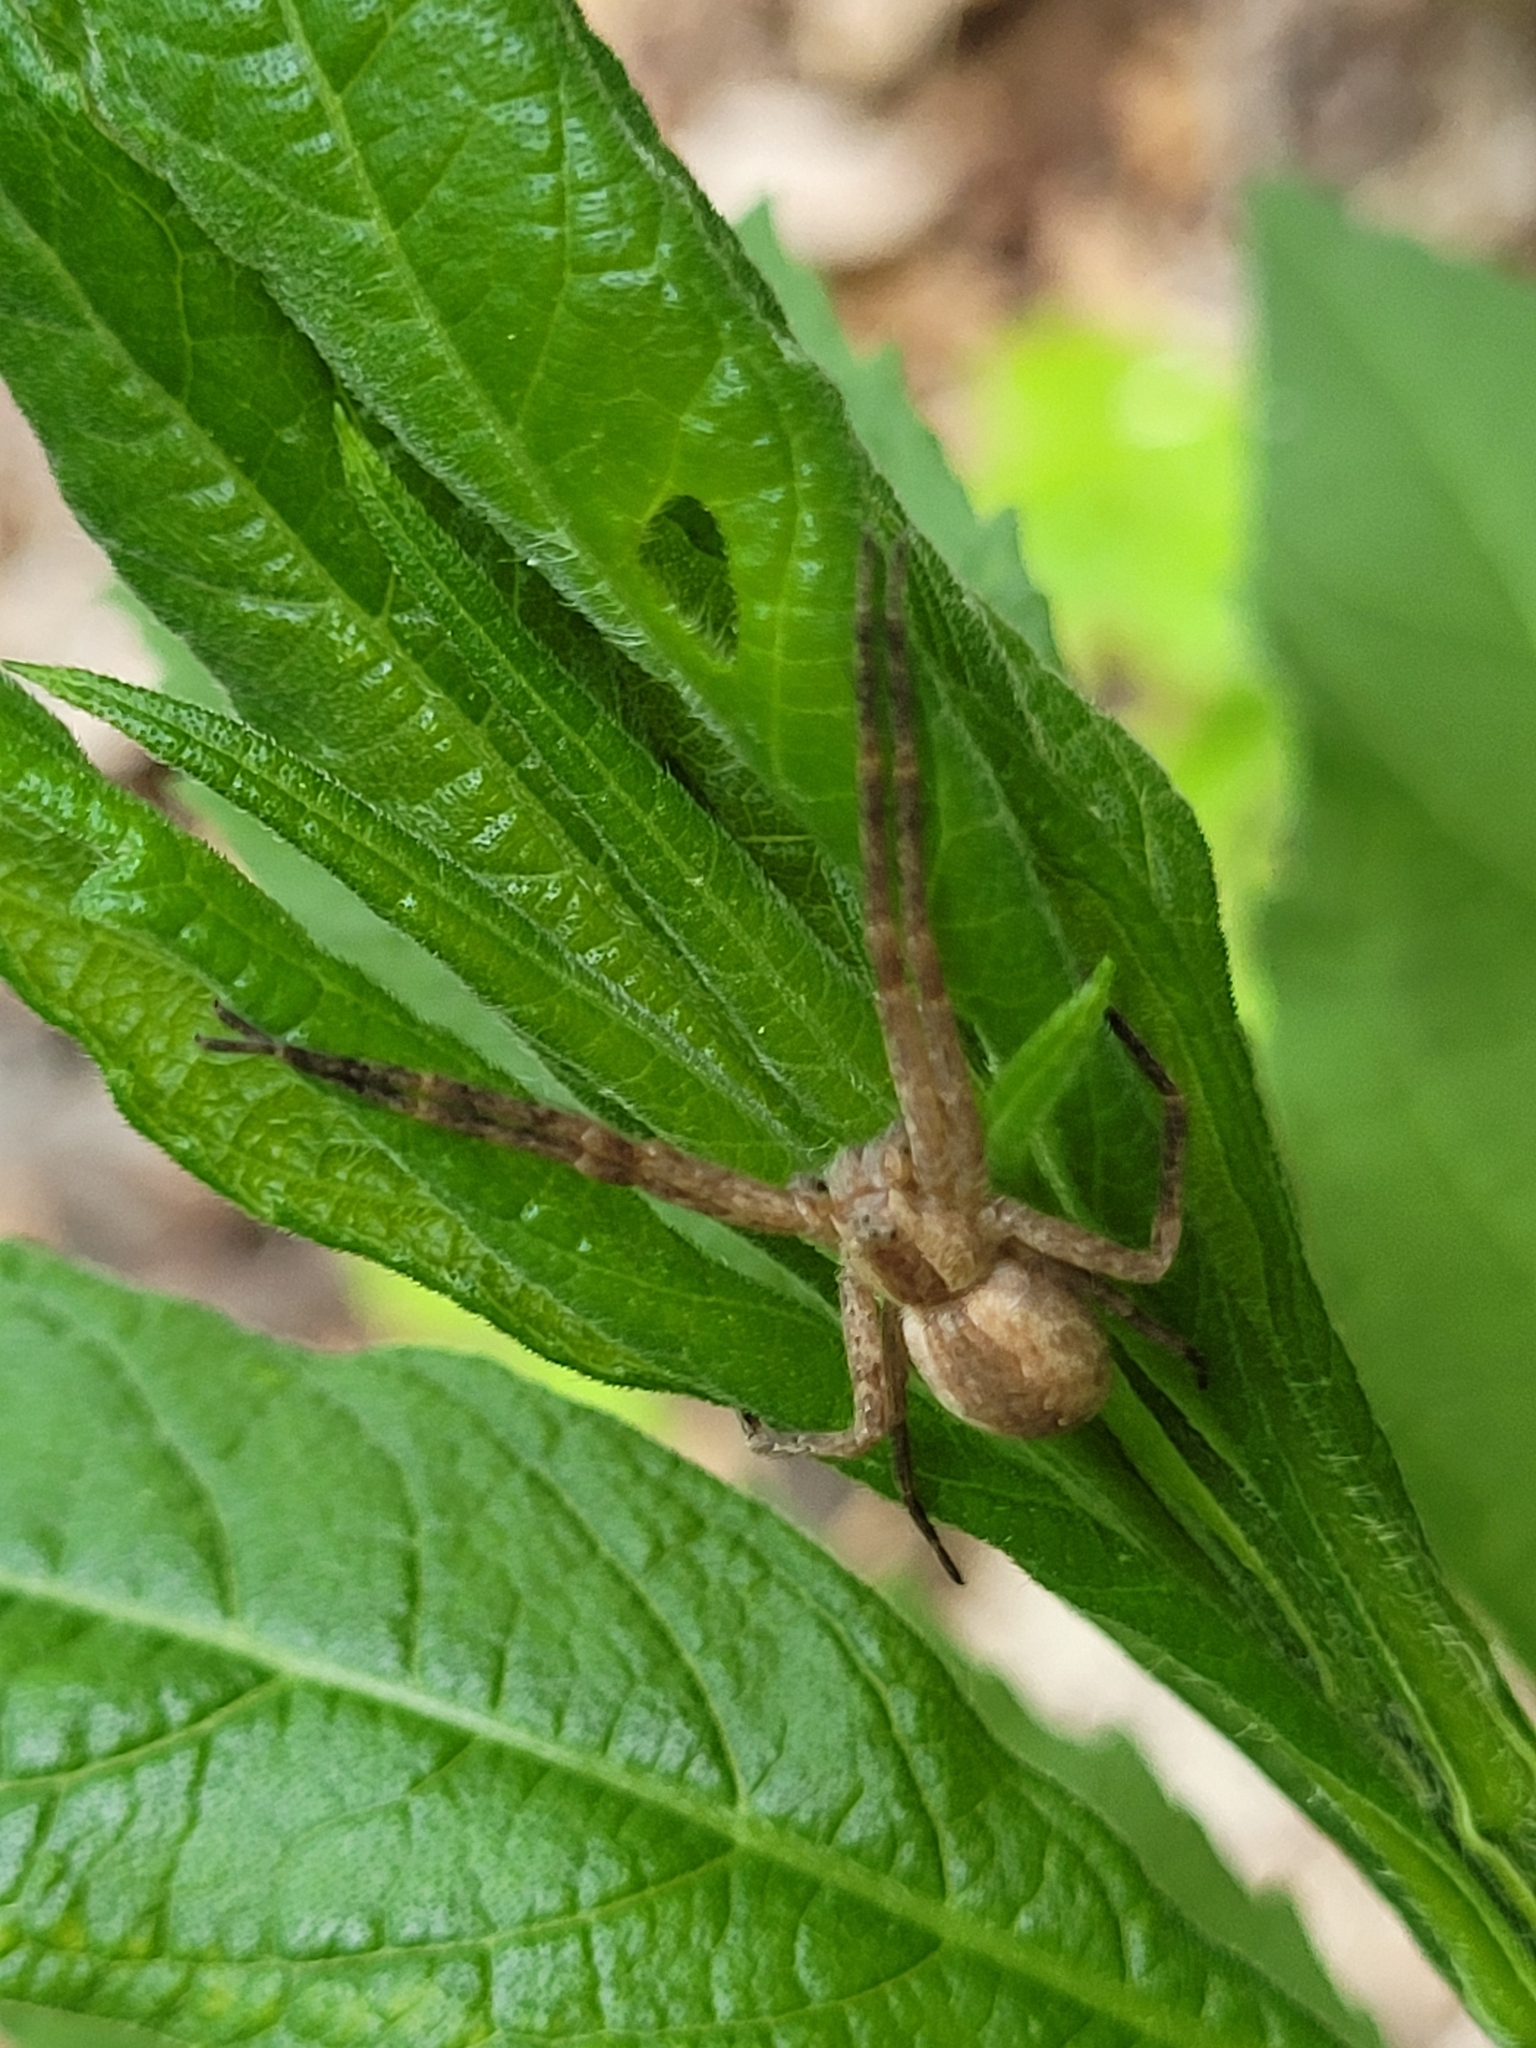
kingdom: Animalia
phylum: Arthropoda
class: Arachnida
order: Araneae
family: Pisauridae
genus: Pisaurina
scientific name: Pisaurina mira
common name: American nursery web spider
